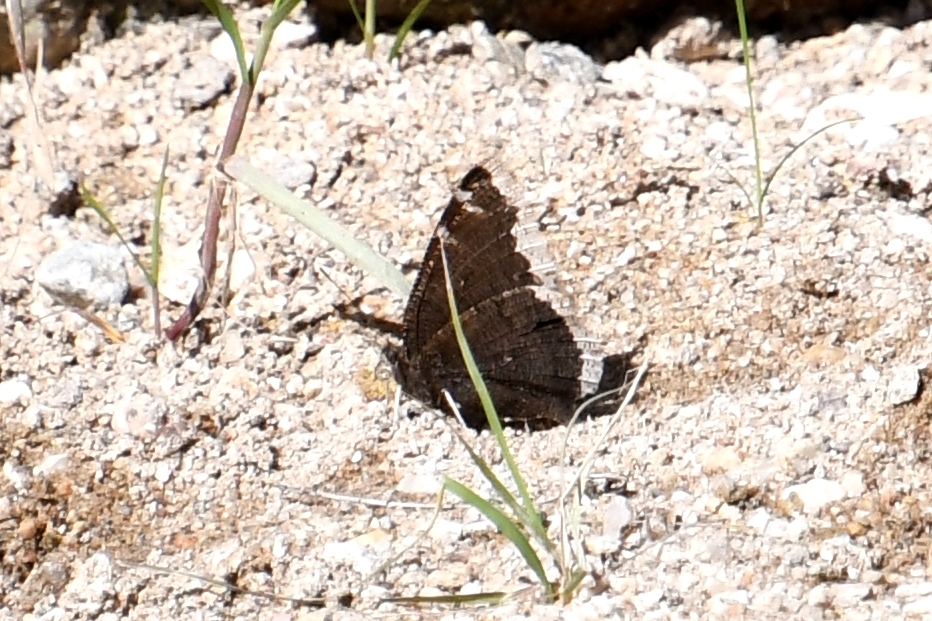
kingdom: Animalia
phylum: Arthropoda
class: Insecta
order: Lepidoptera
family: Nymphalidae
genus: Nymphalis
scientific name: Nymphalis antiopa
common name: Camberwell beauty
